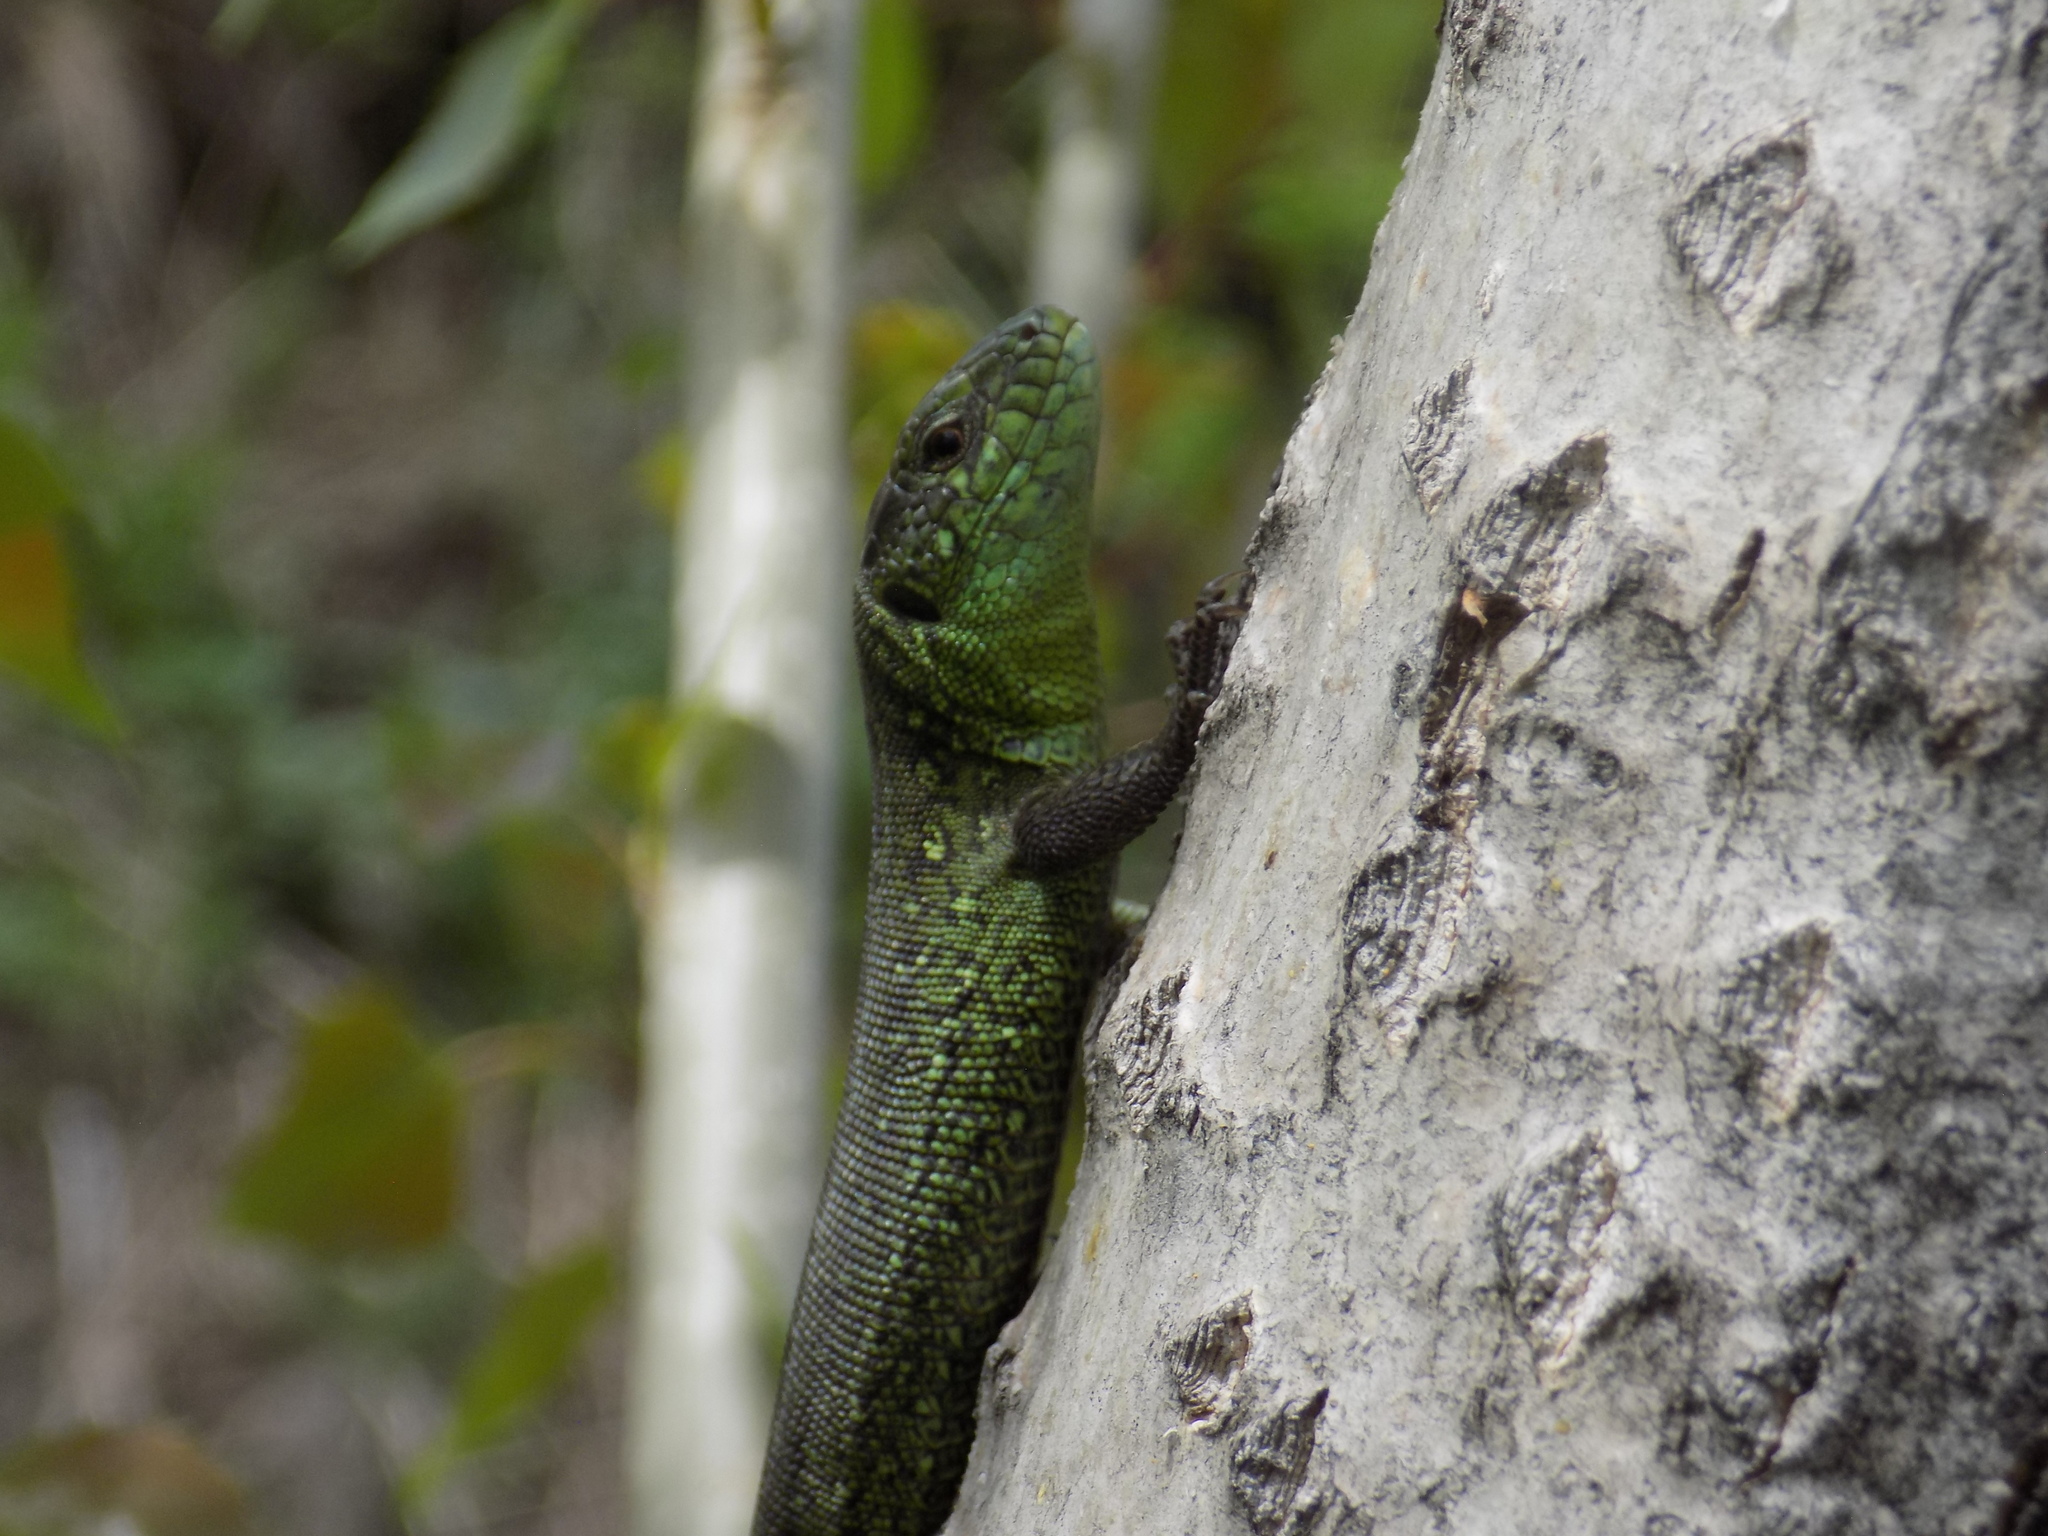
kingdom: Animalia
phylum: Chordata
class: Squamata
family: Lacertidae
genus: Lacerta
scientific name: Lacerta agilis
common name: Sand lizard
